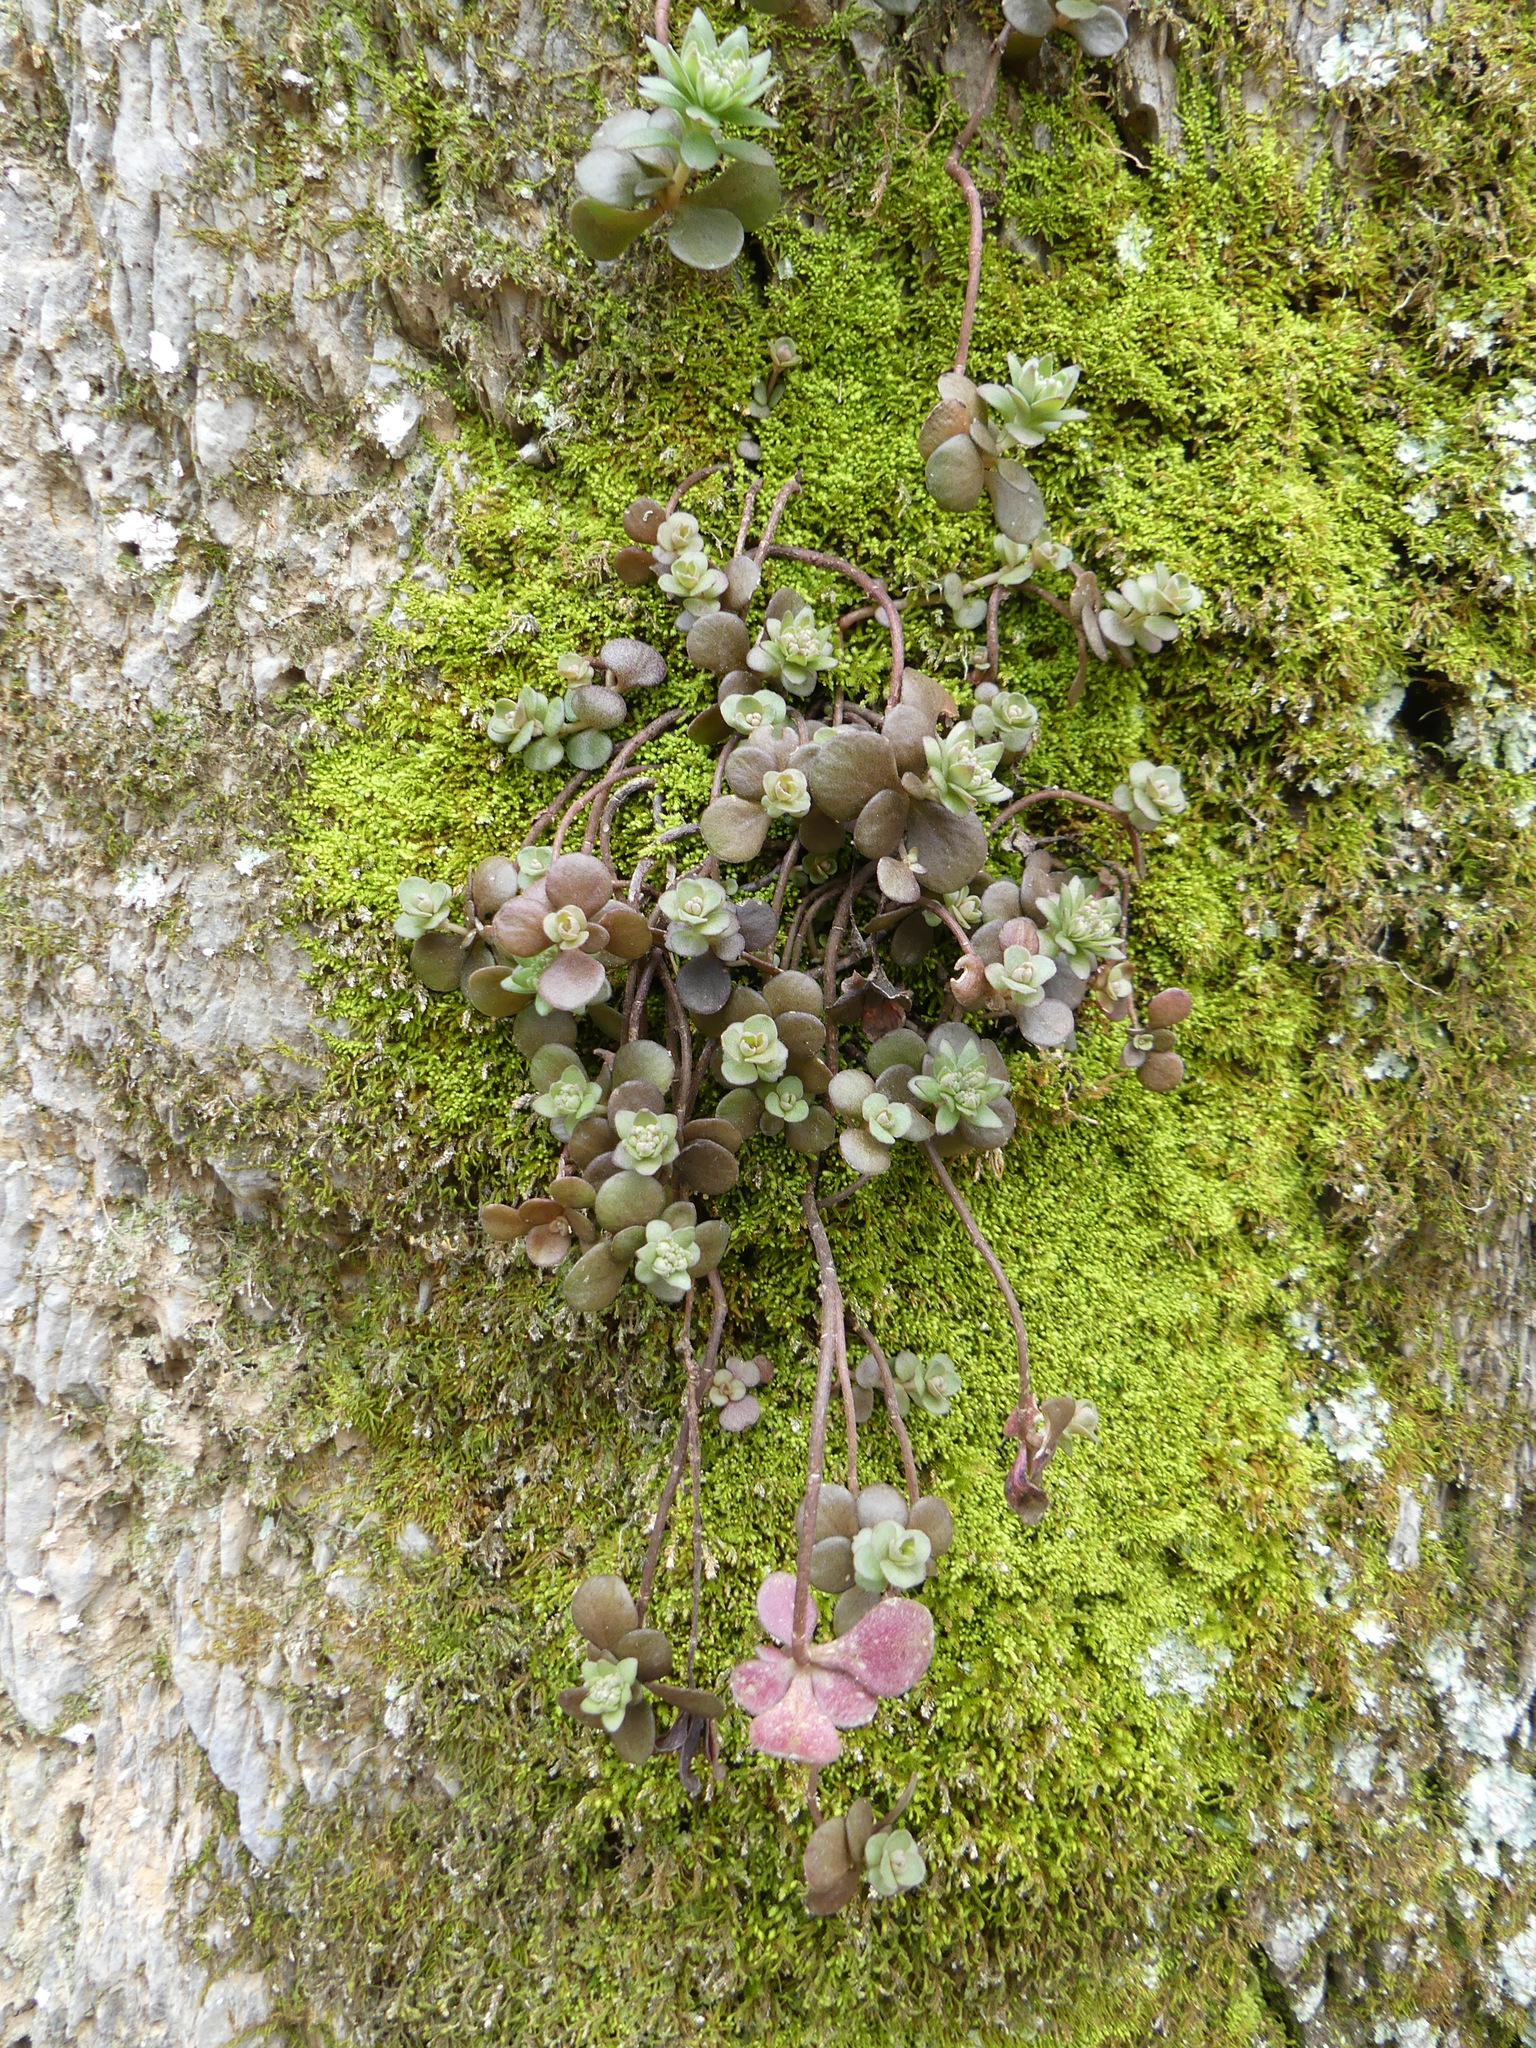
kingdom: Plantae
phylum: Tracheophyta
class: Magnoliopsida
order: Saxifragales
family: Crassulaceae
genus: Sedum
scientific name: Sedum ternatum
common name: Wild stonecrop
